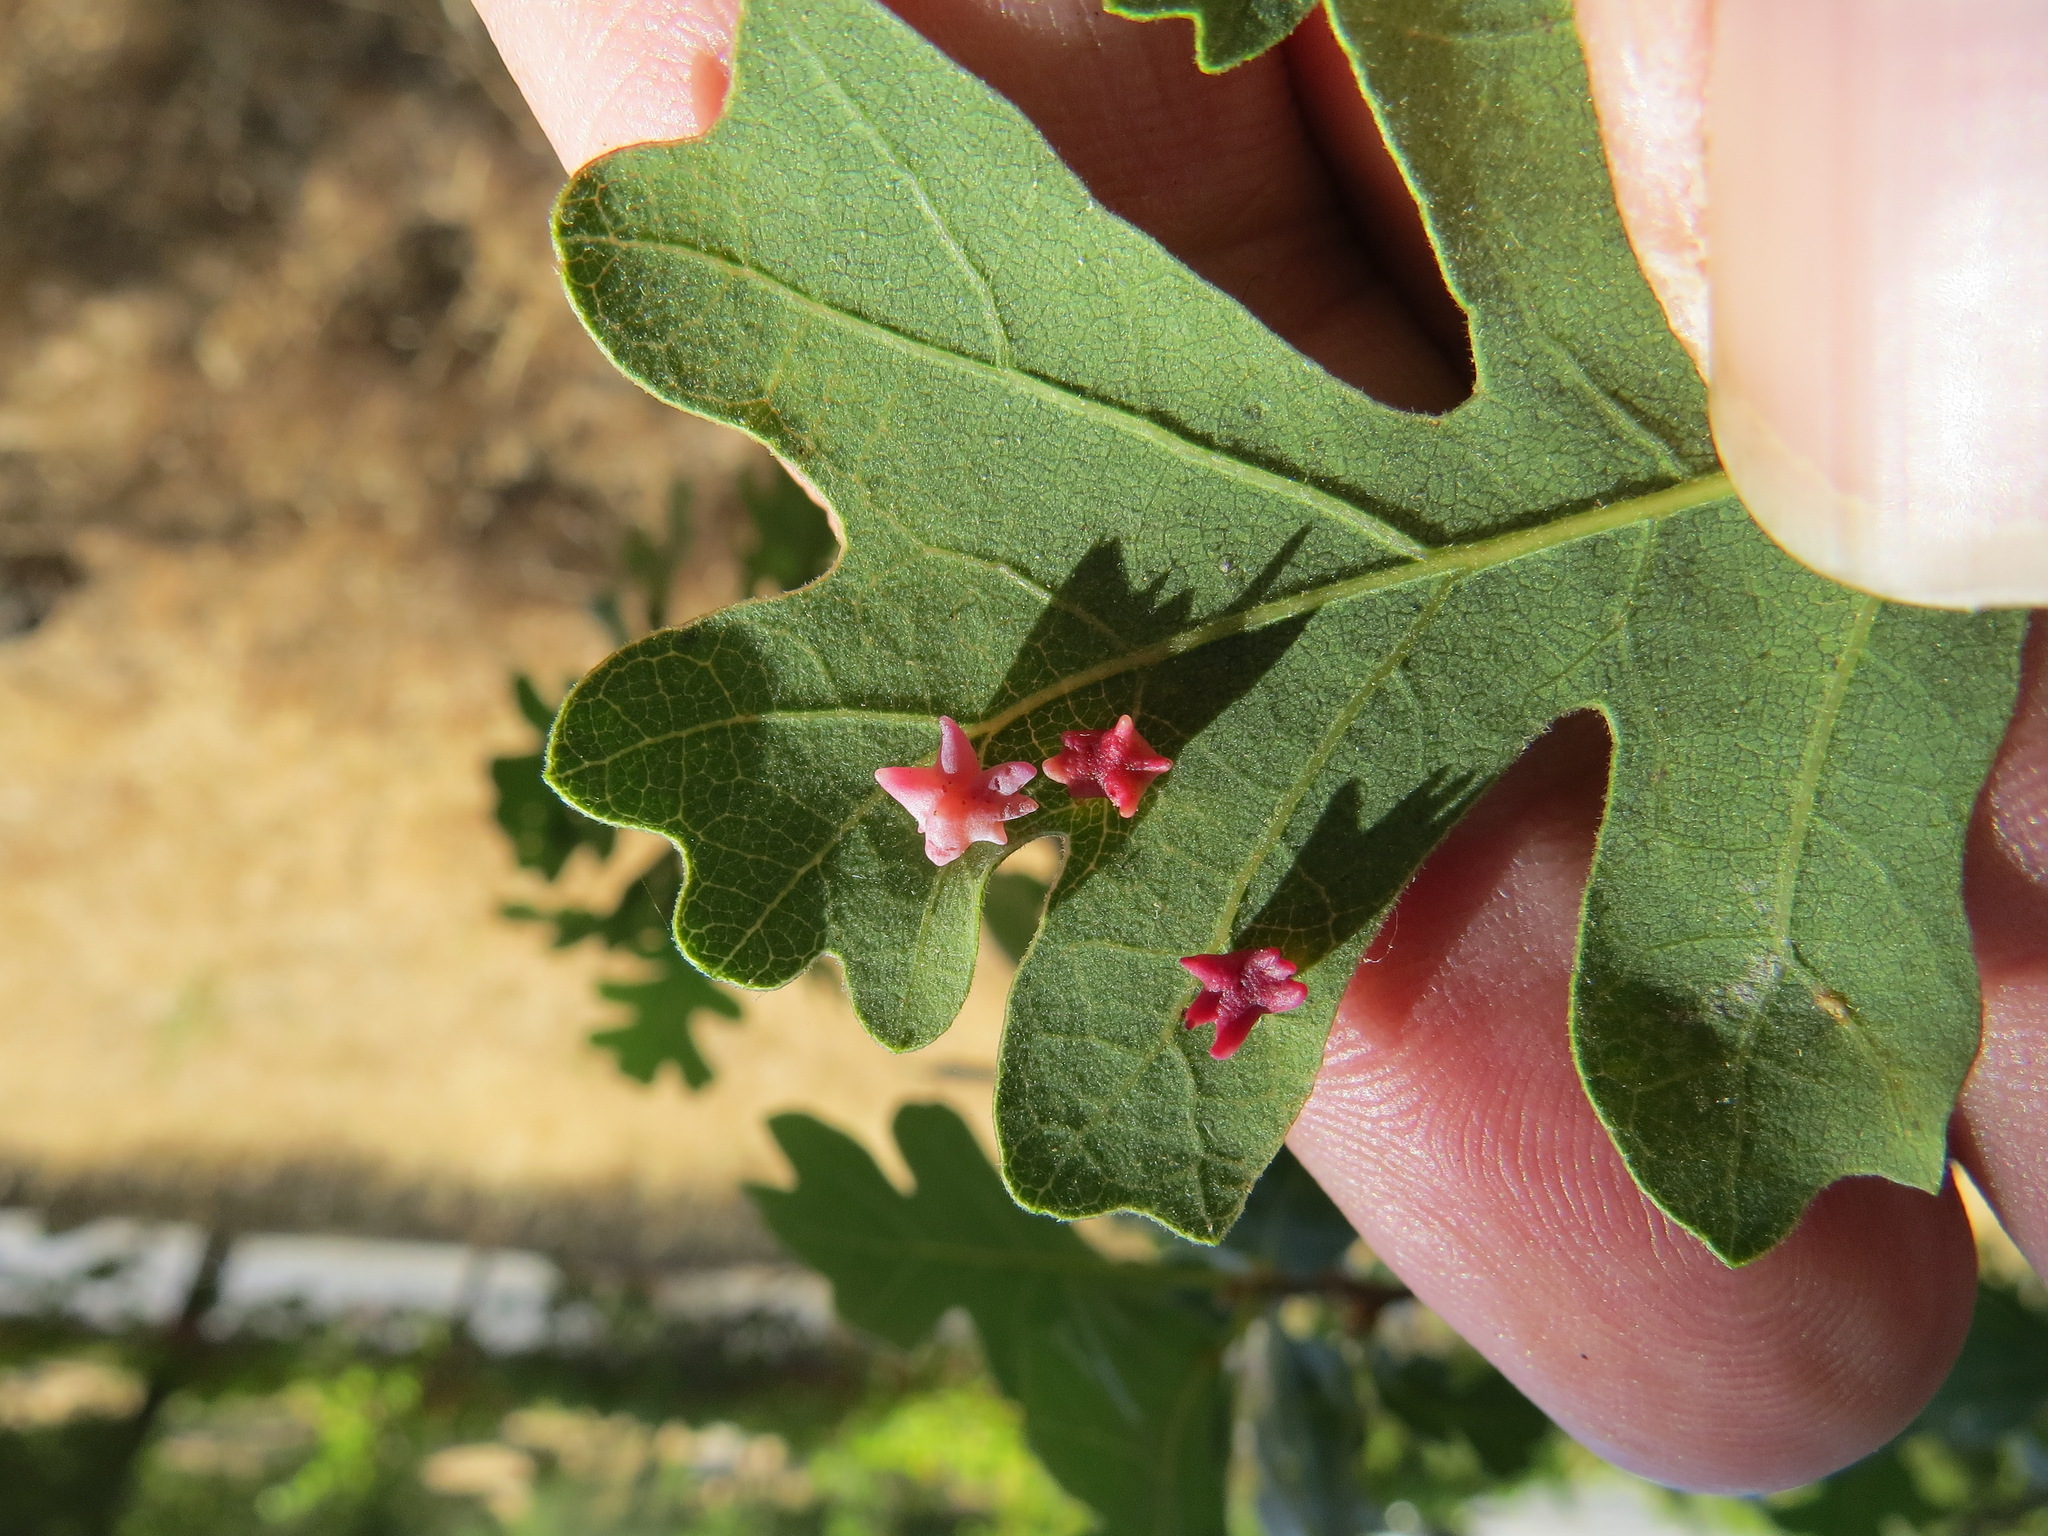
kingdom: Animalia
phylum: Arthropoda
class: Insecta
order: Hymenoptera
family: Cynipidae
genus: Cynips
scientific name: Cynips douglasi
